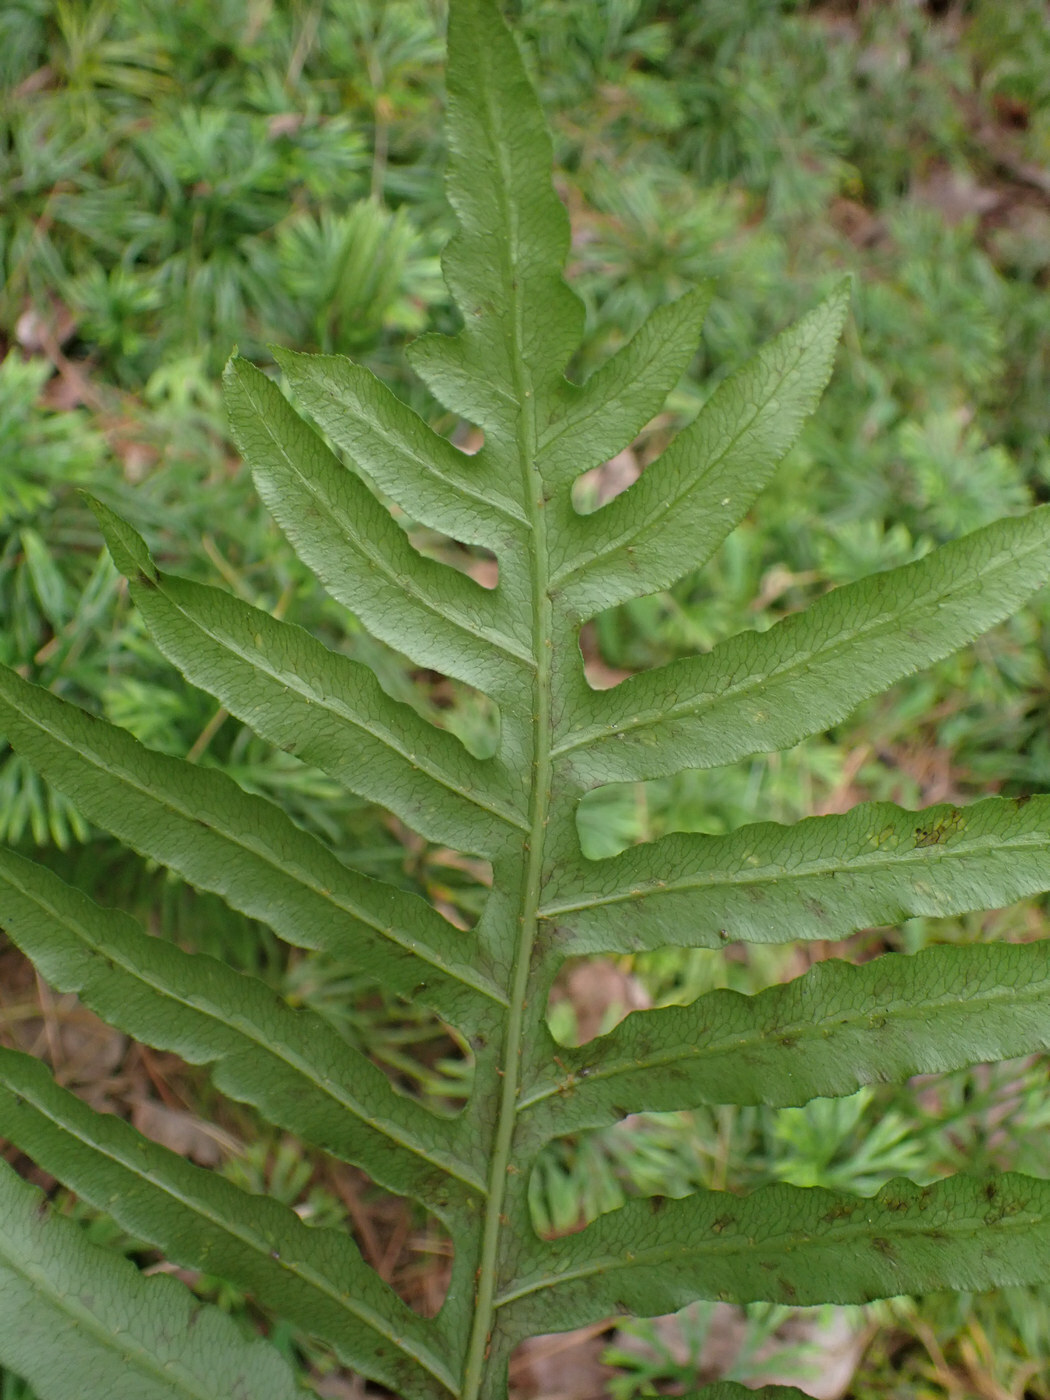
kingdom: Plantae
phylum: Tracheophyta
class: Polypodiopsida
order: Polypodiales
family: Blechnaceae
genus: Lorinseria
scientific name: Lorinseria areolata
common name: Dwarf chain fern
